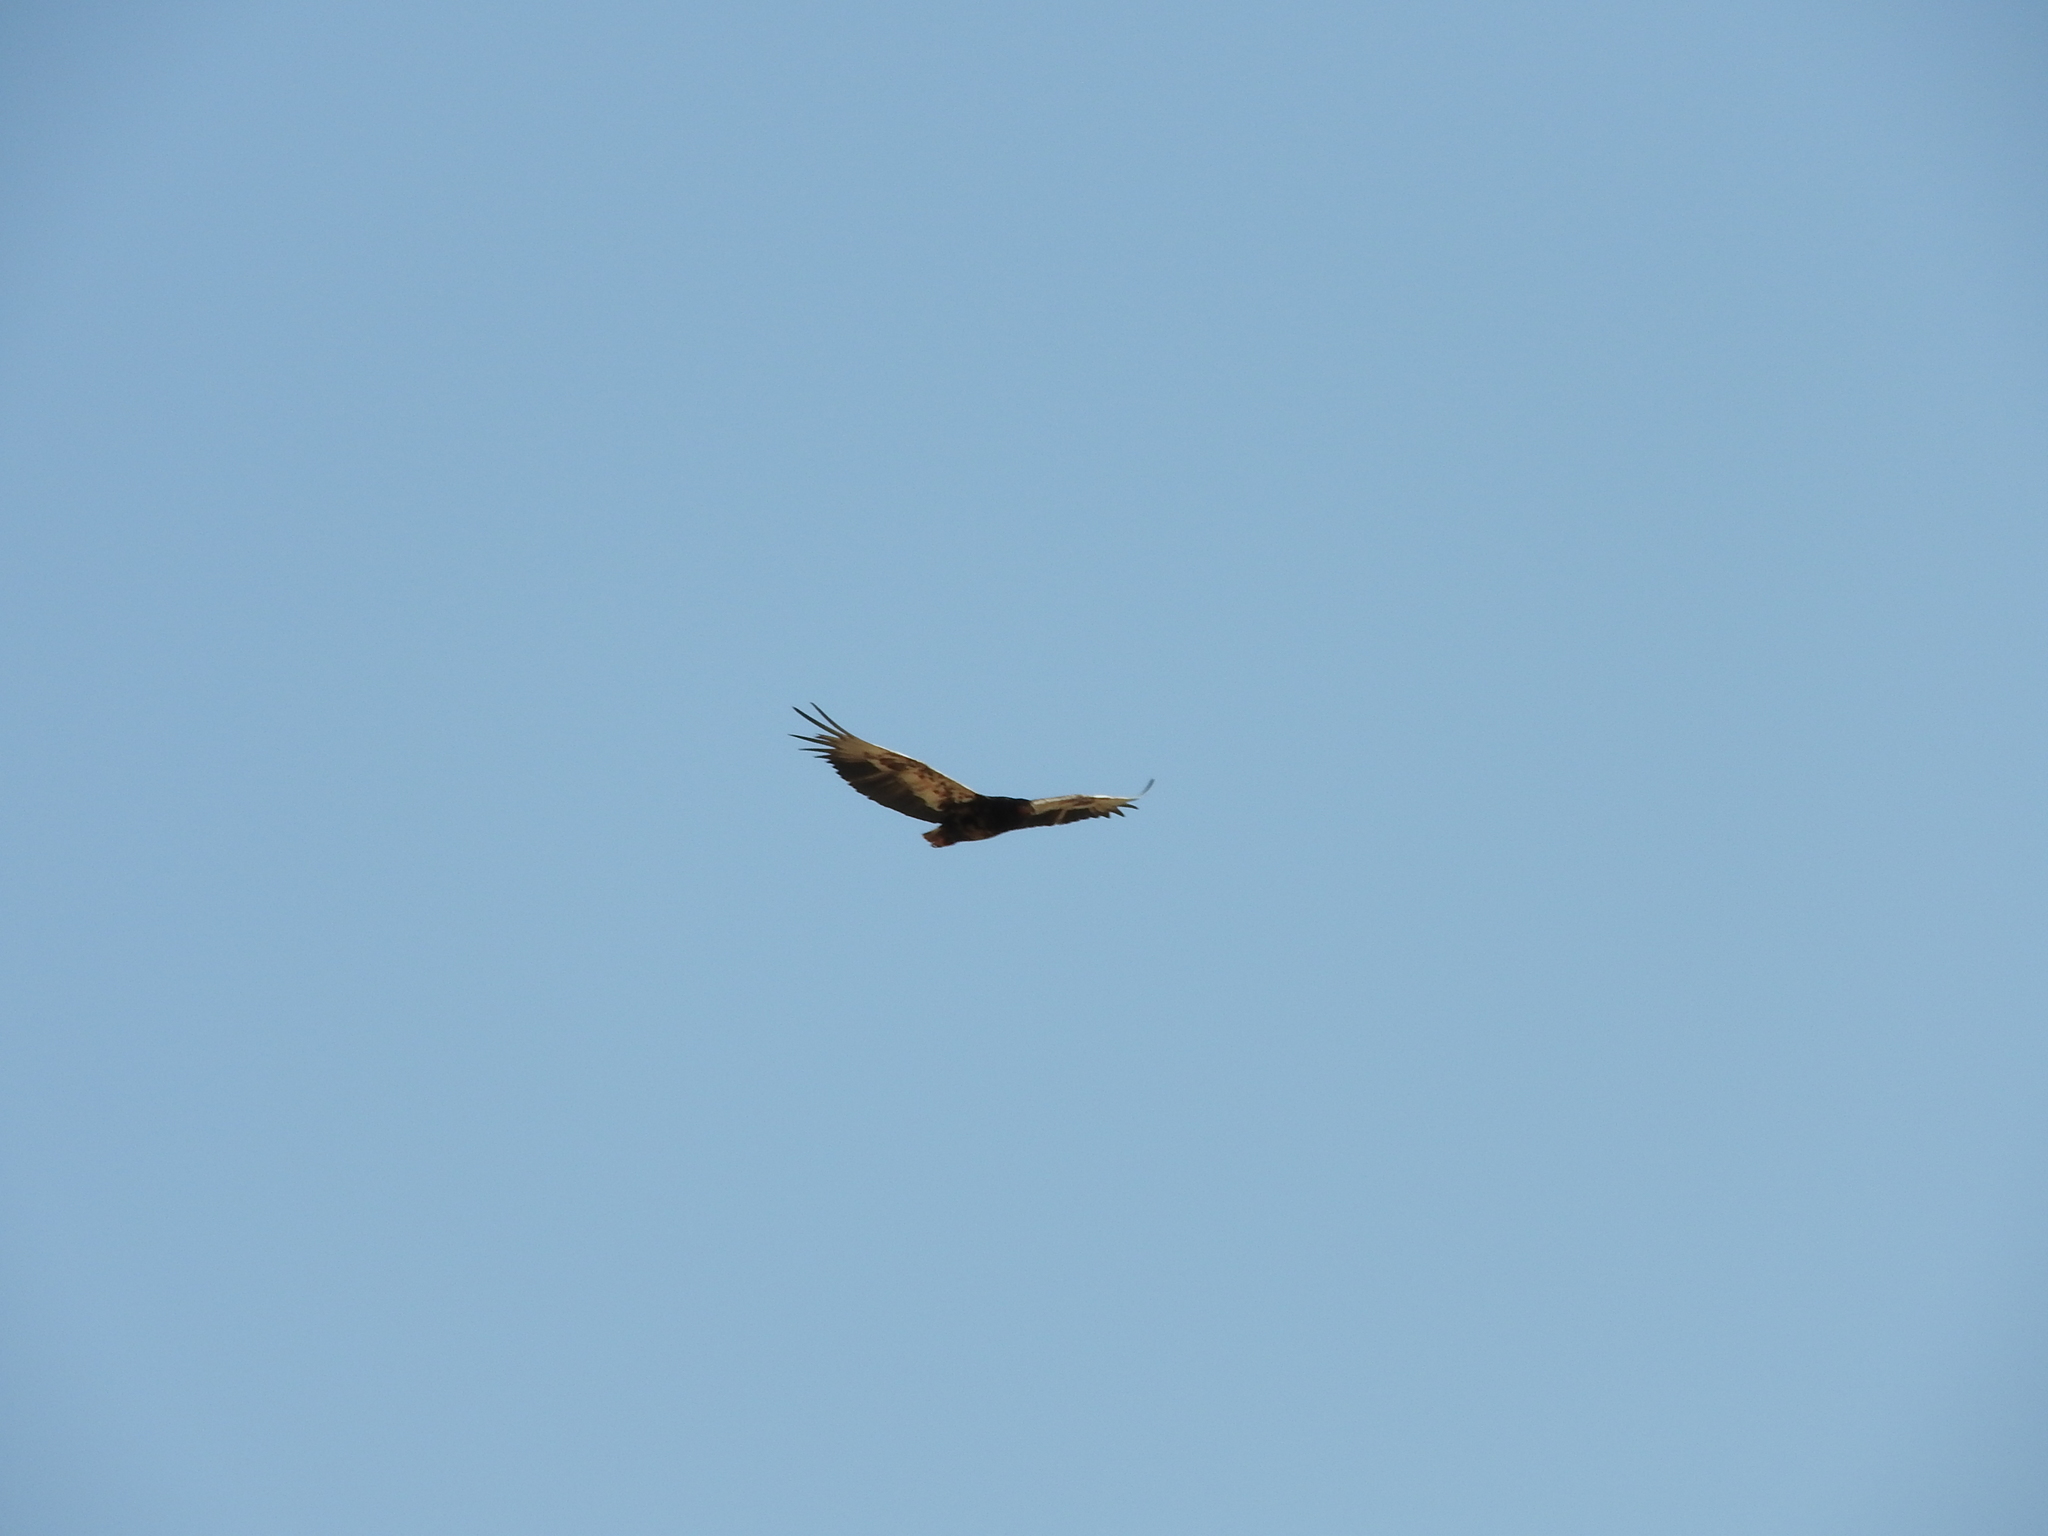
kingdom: Animalia
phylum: Chordata
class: Aves
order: Accipitriformes
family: Accipitridae
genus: Terathopius
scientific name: Terathopius ecaudatus
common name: Bateleur
